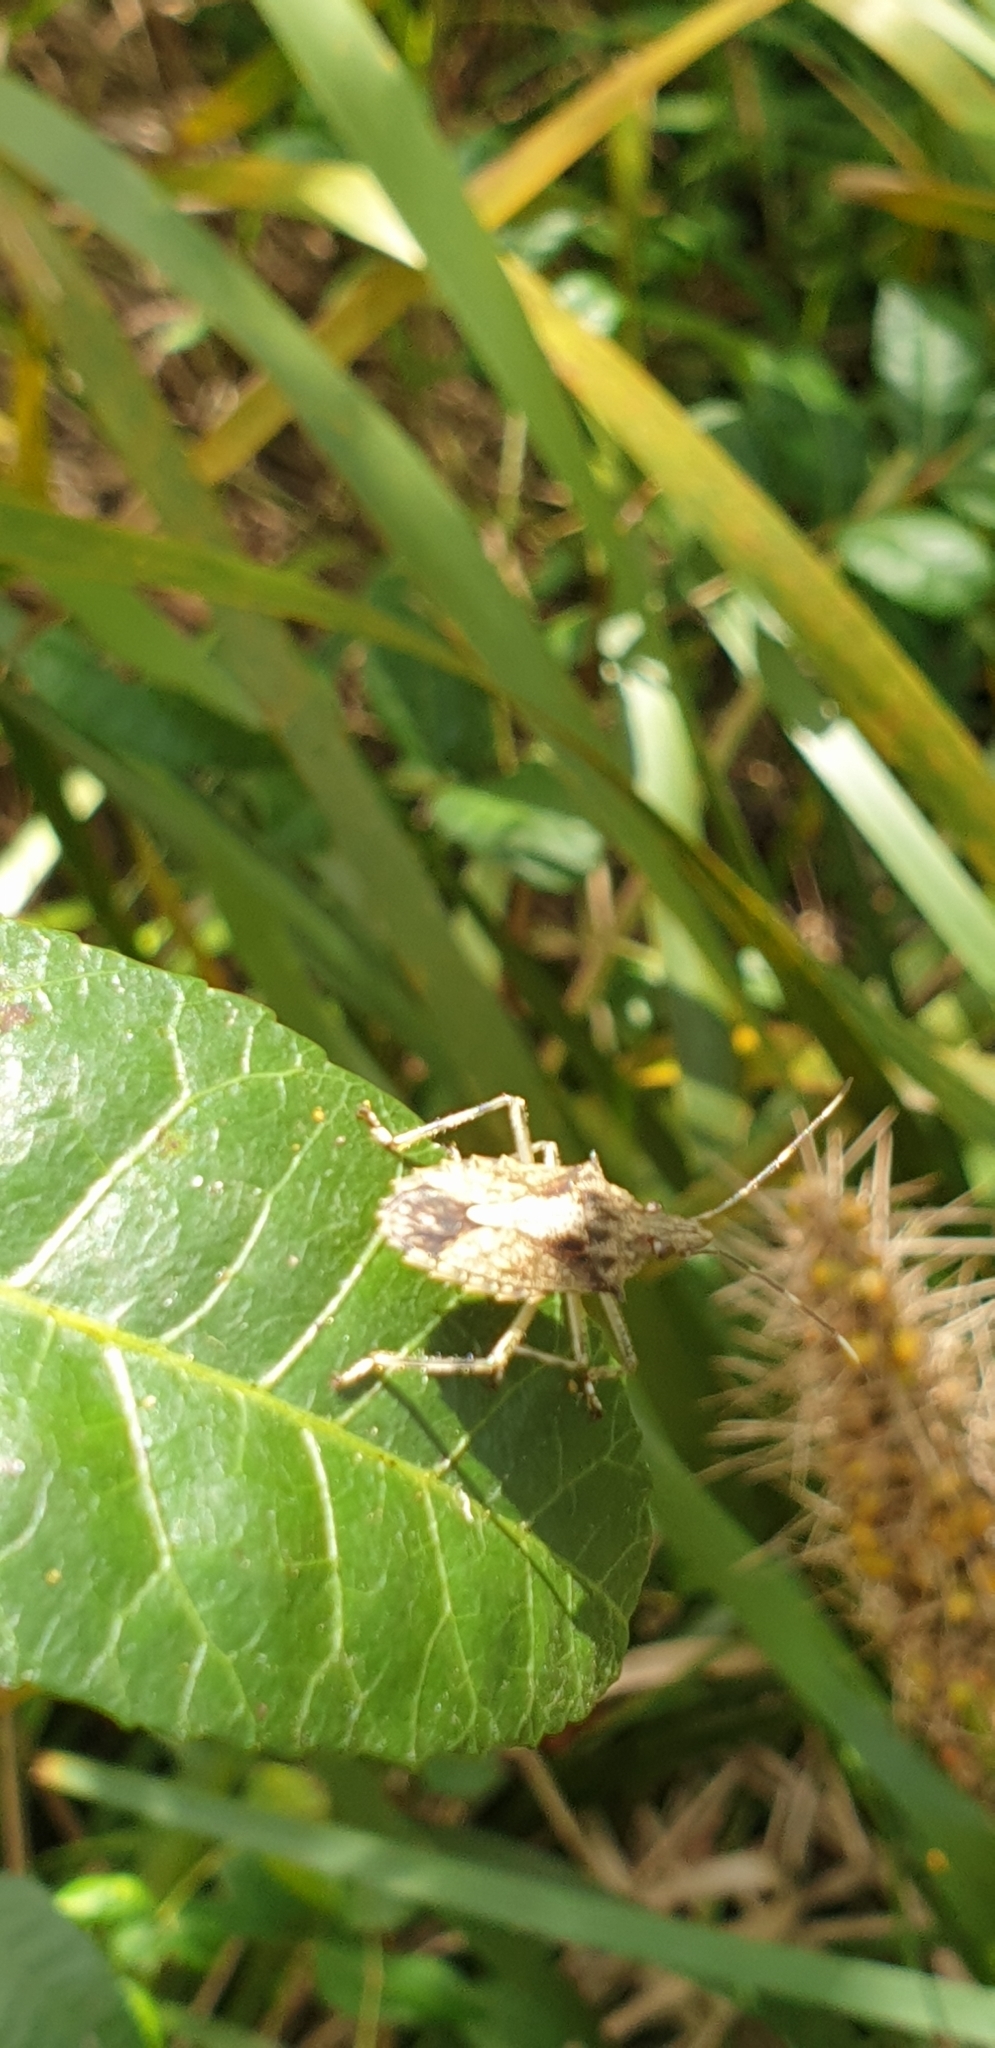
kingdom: Animalia
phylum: Arthropoda
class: Insecta
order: Hemiptera
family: Pentatomidae
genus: Bromocoris
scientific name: Bromocoris
